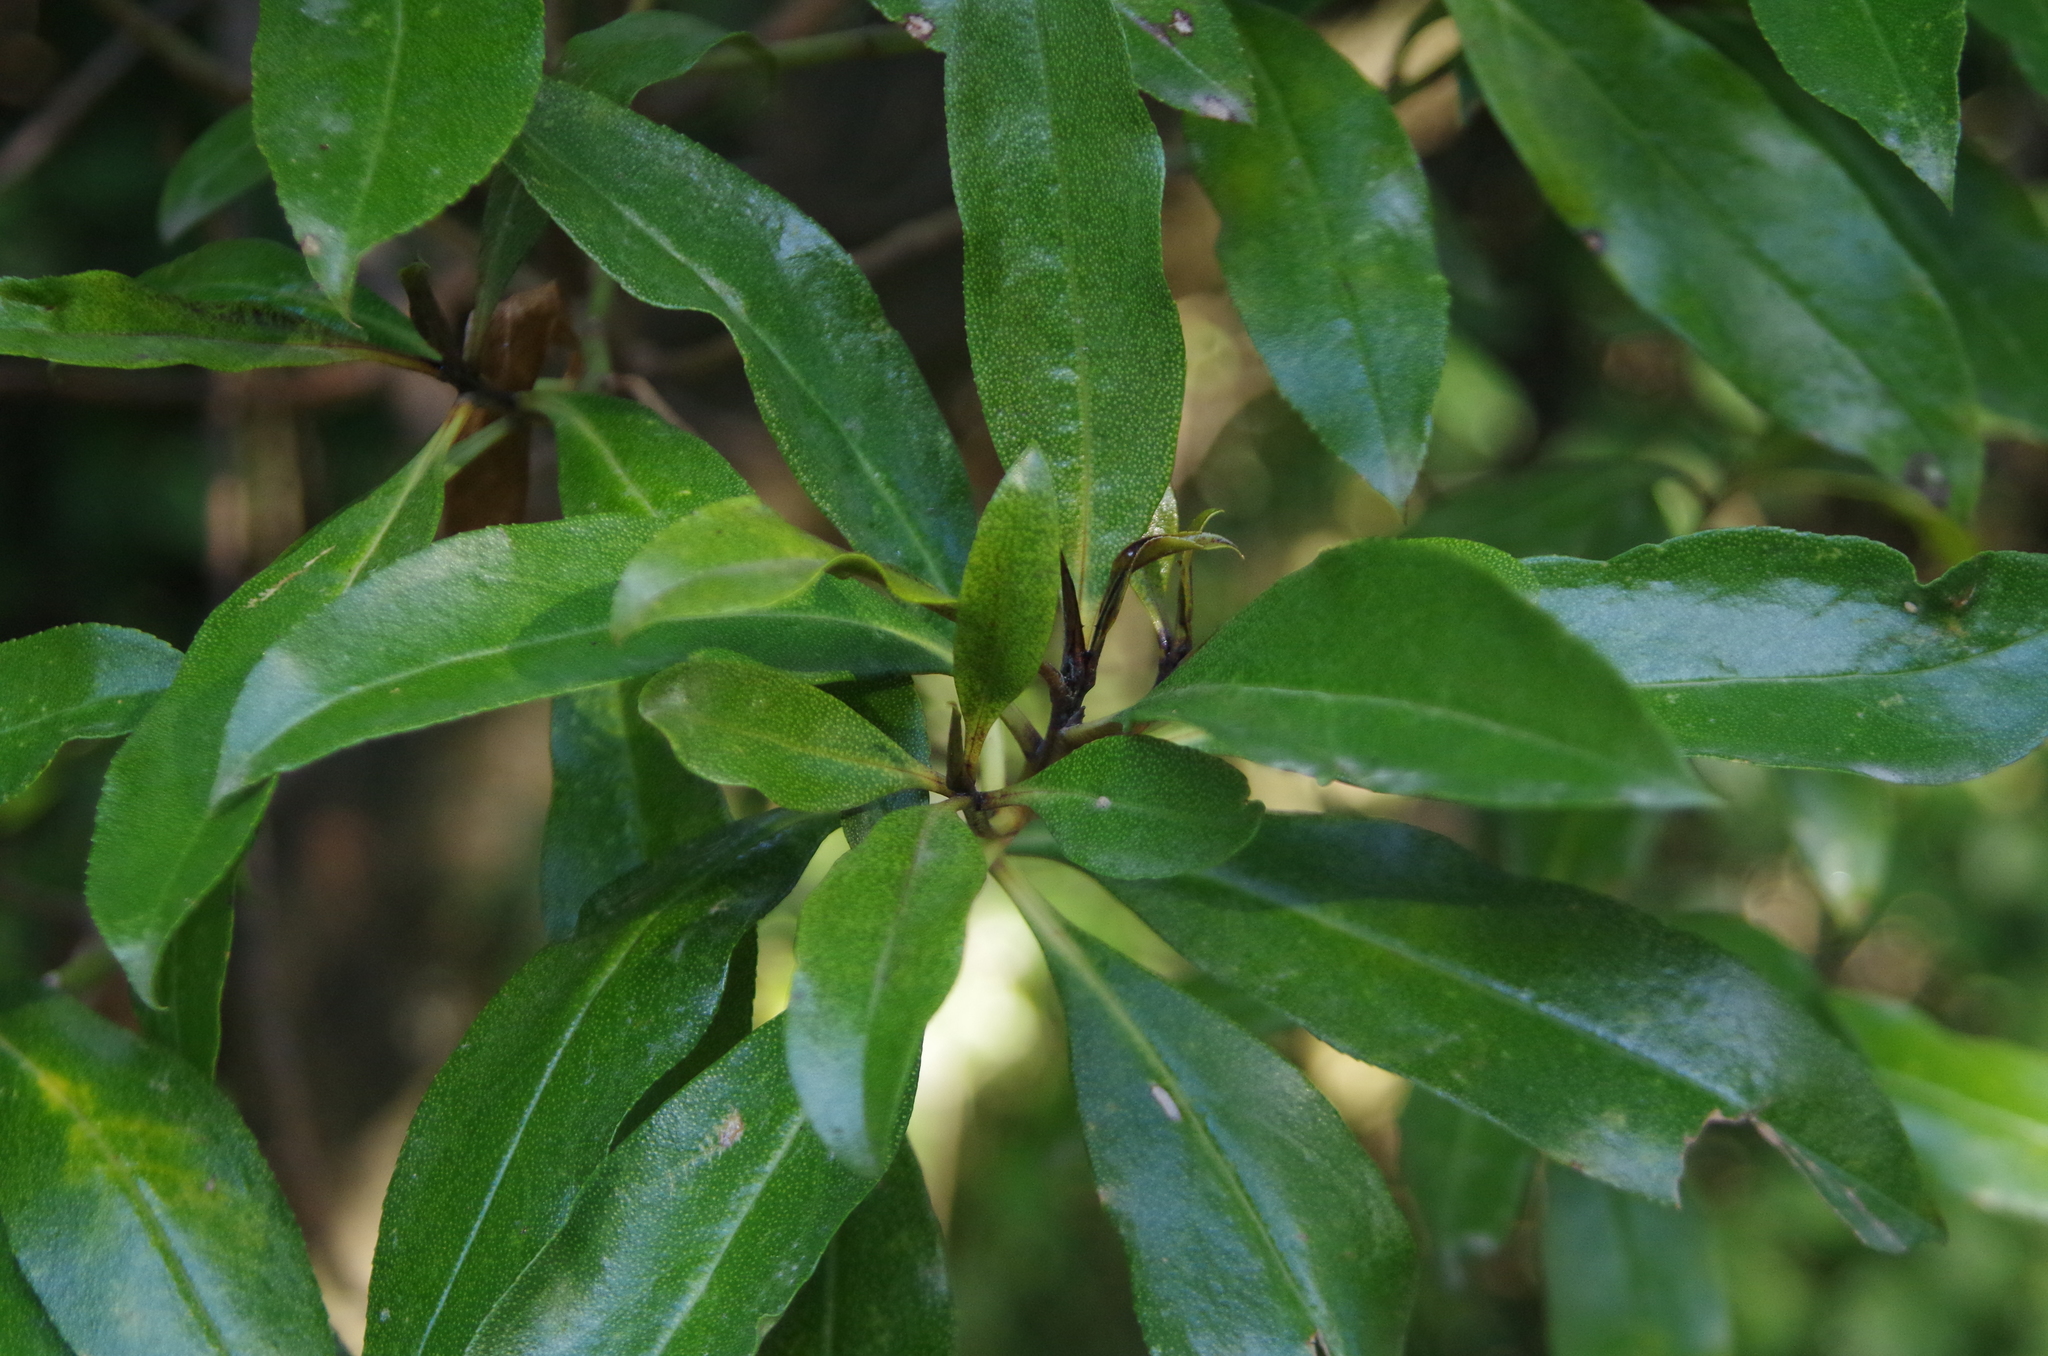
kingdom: Plantae
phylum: Tracheophyta
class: Magnoliopsida
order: Lamiales
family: Scrophulariaceae
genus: Myoporum
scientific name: Myoporum laetum
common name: Ngaio tree
